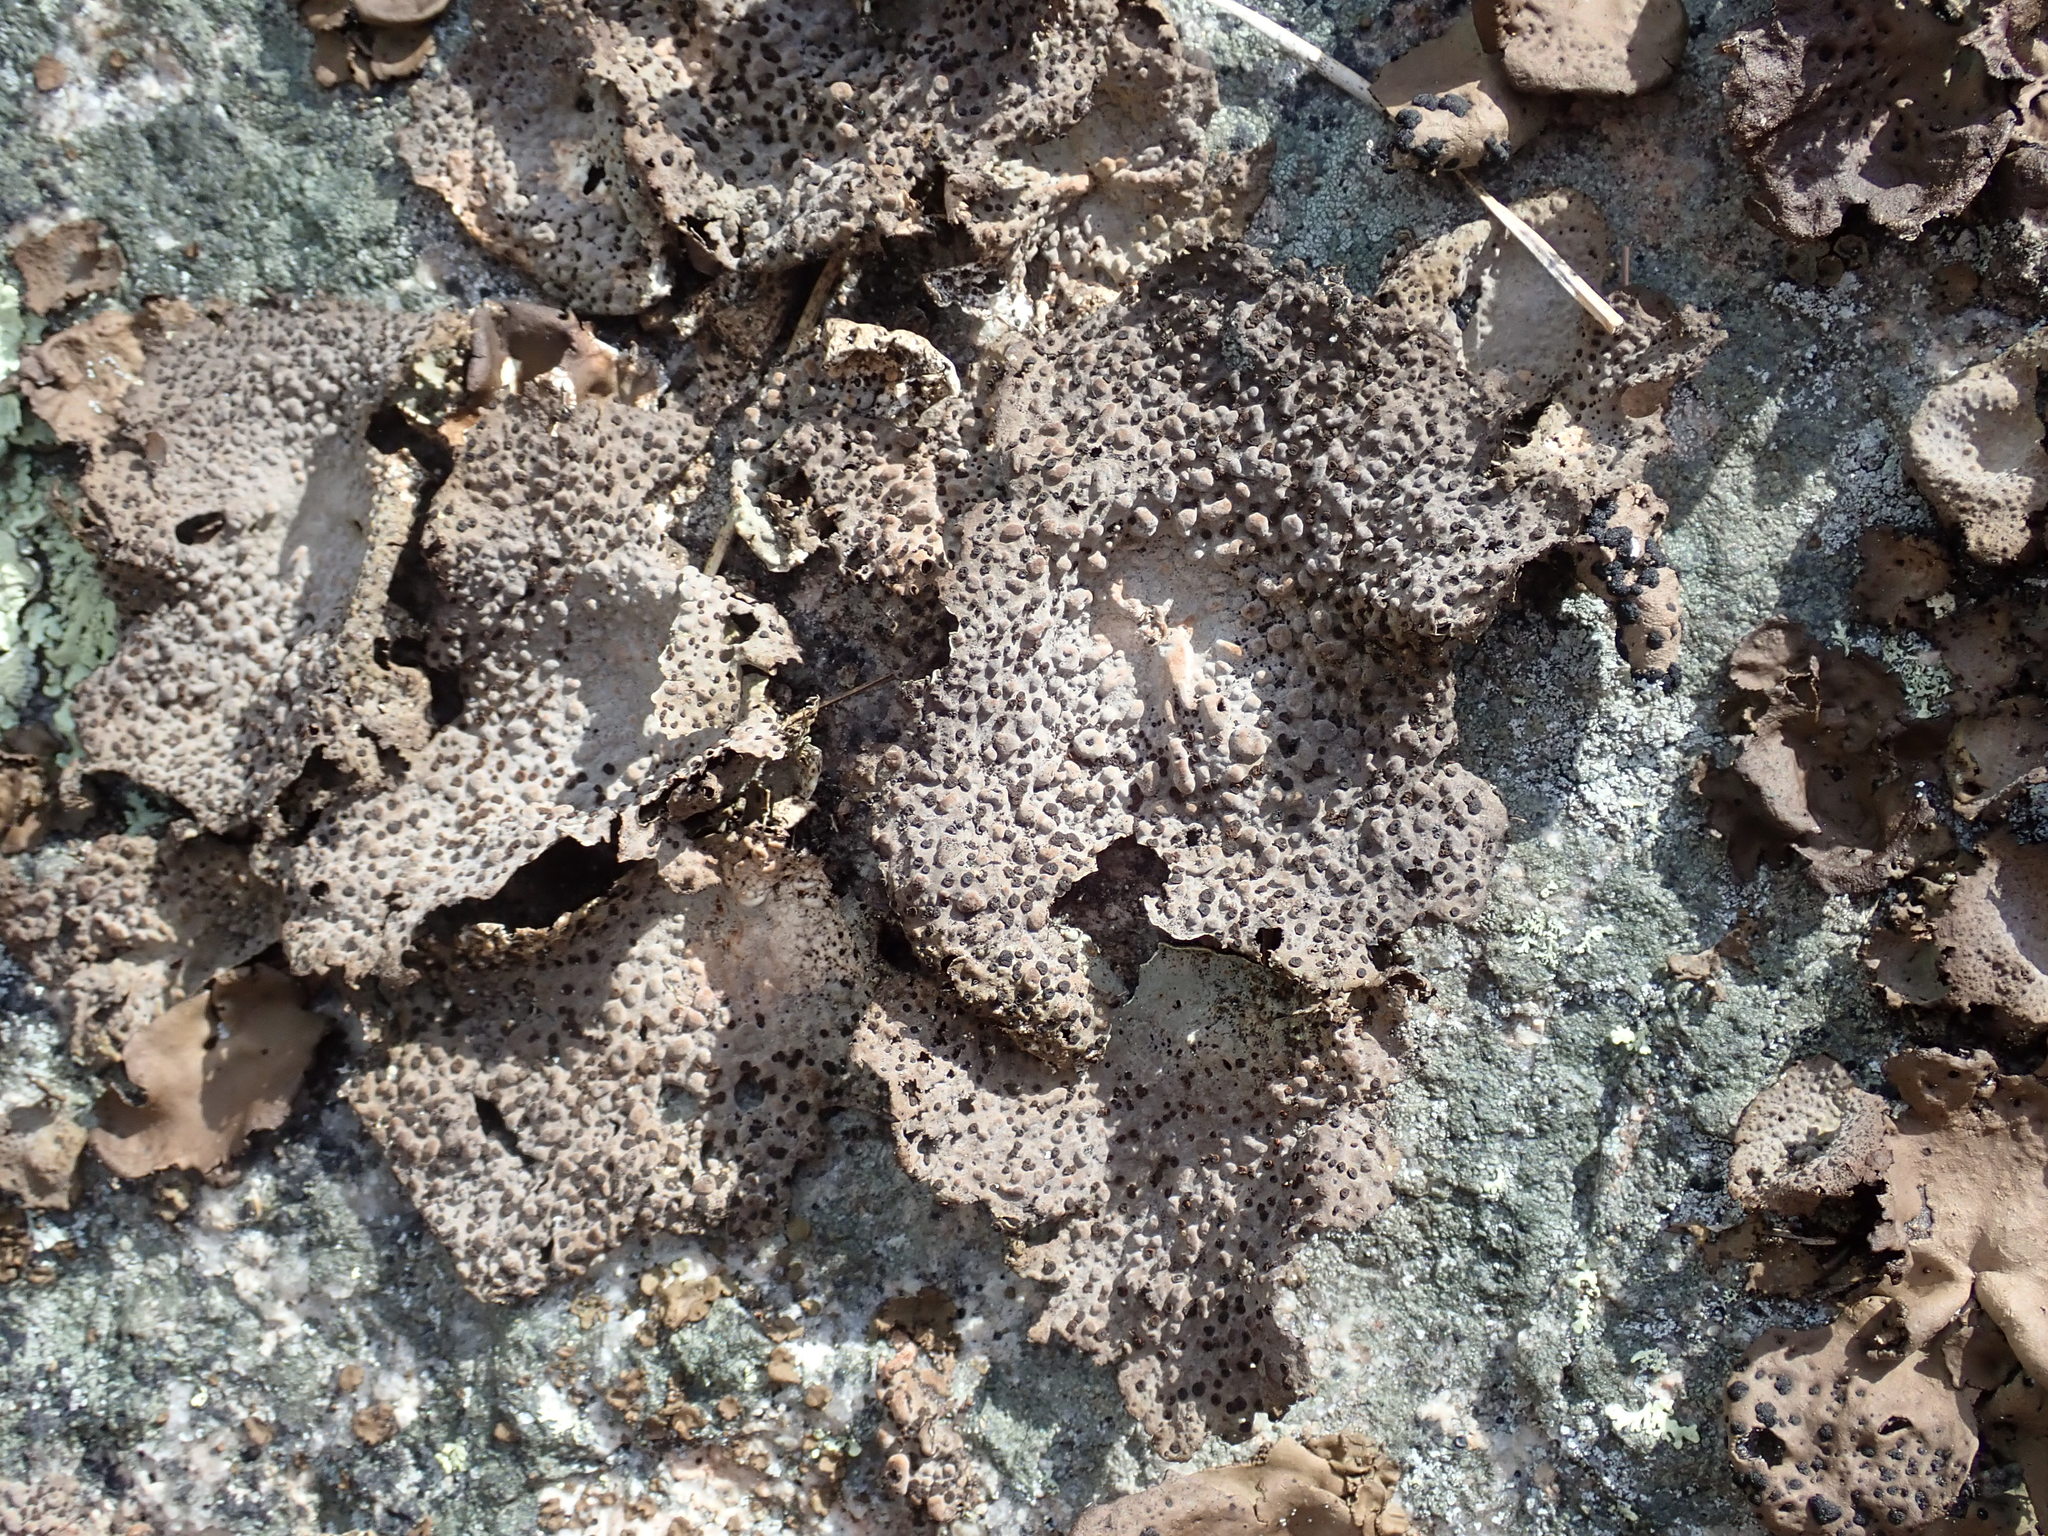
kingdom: Fungi
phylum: Ascomycota
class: Lecanoromycetes
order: Umbilicariales
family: Umbilicariaceae
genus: Lasallia
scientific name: Lasallia papulosa
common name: Common toadskin lichen
